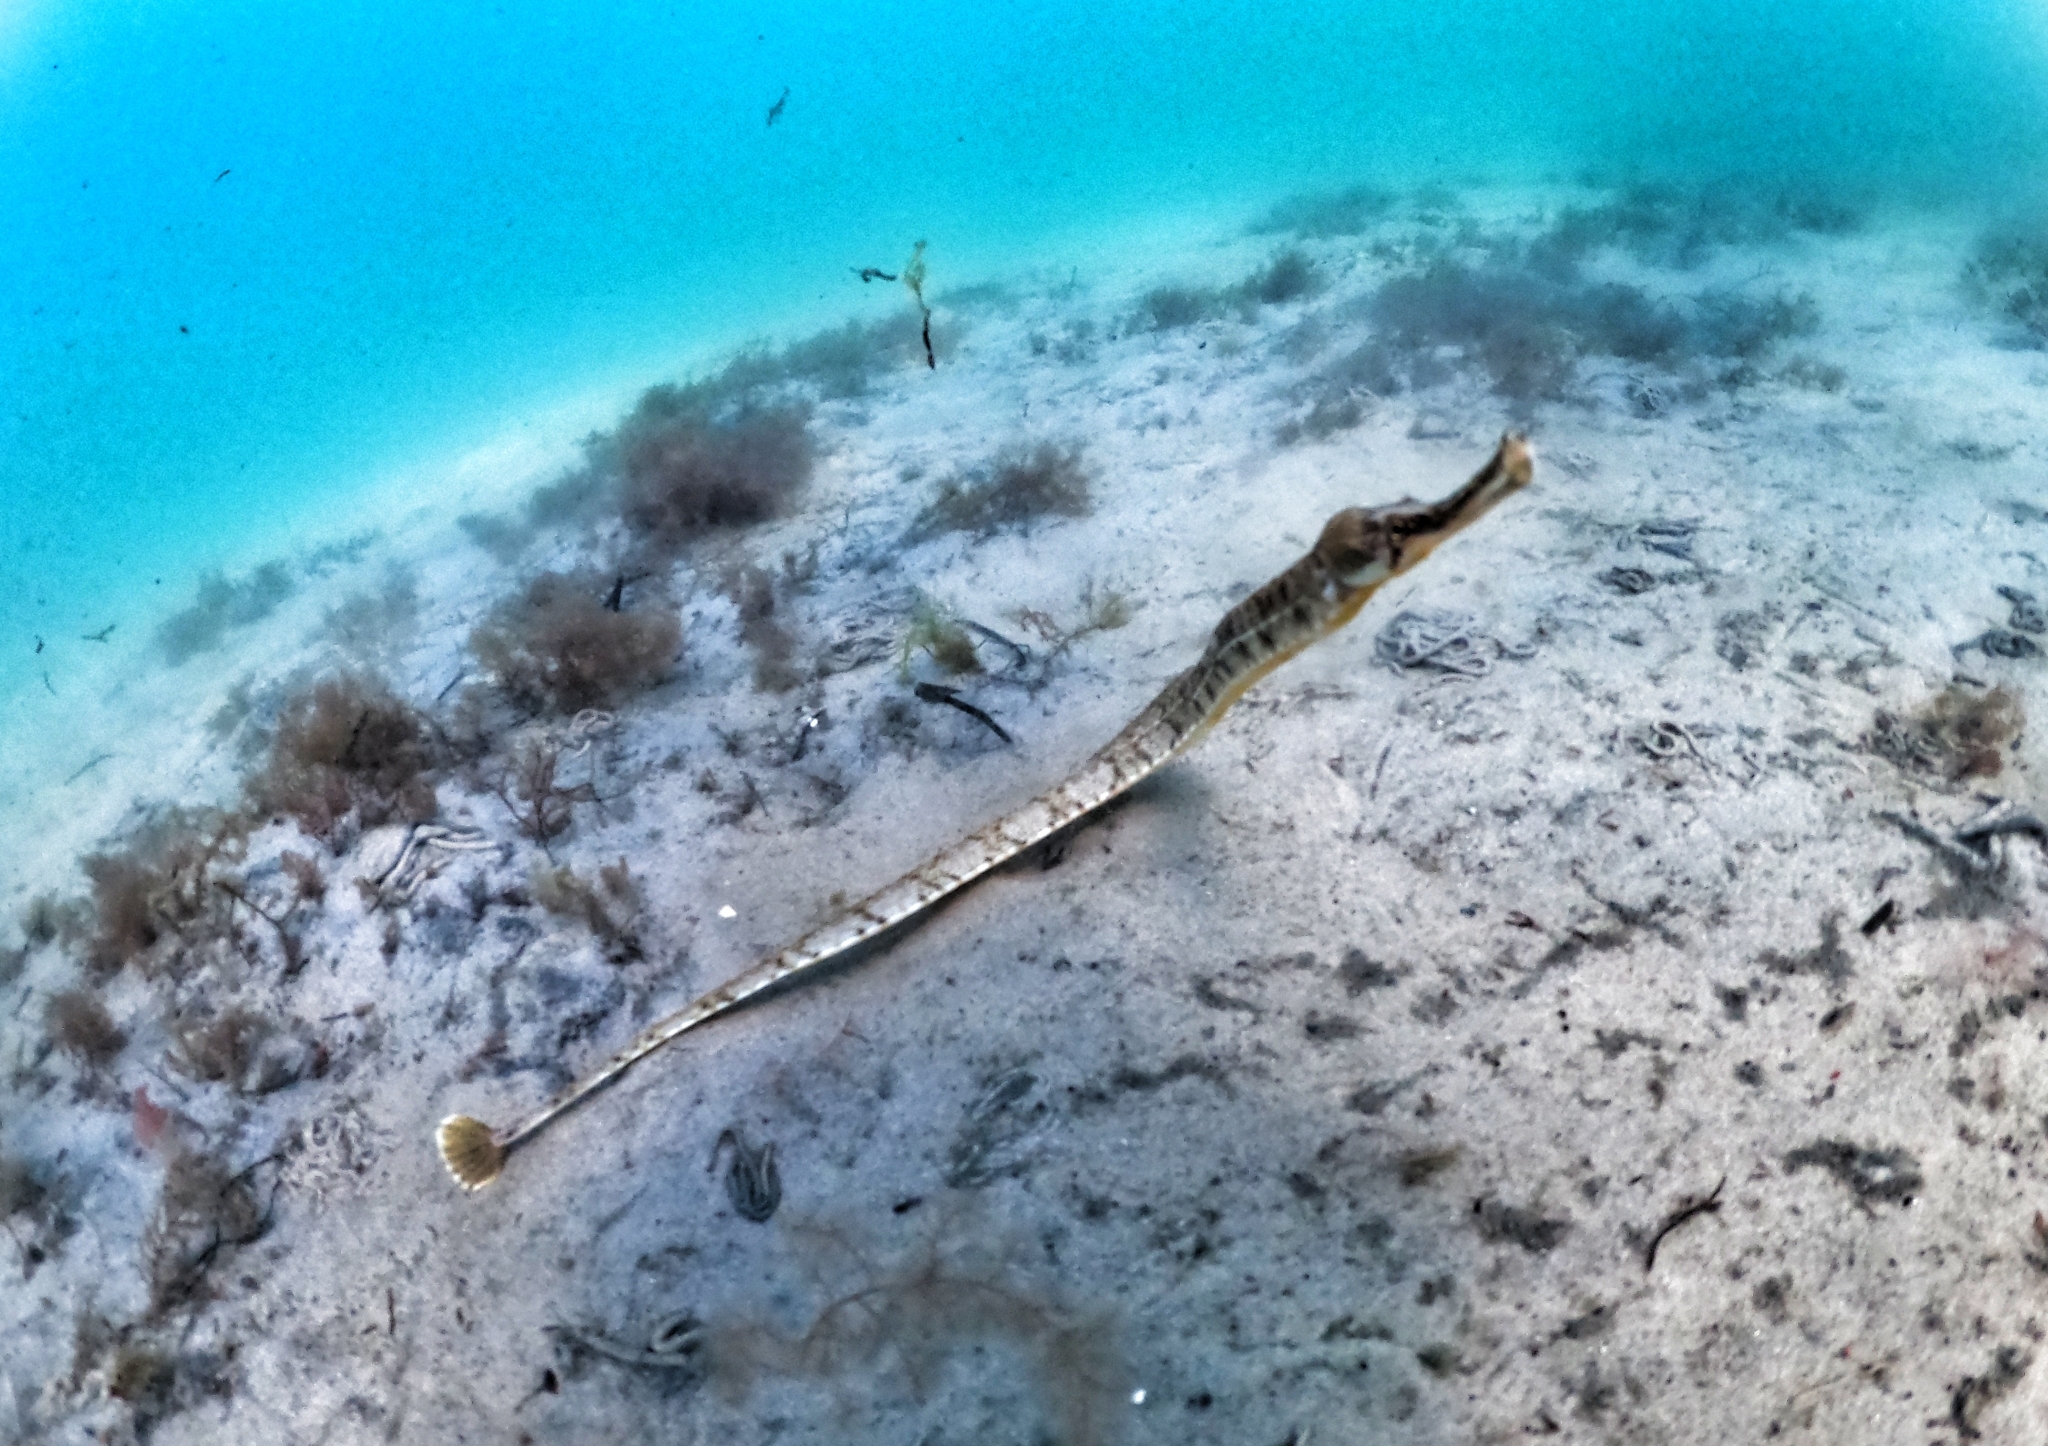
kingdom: Animalia
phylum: Chordata
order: Syngnathiformes
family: Syngnathidae
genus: Syngnathus
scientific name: Syngnathus acus
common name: Greater pipefish
